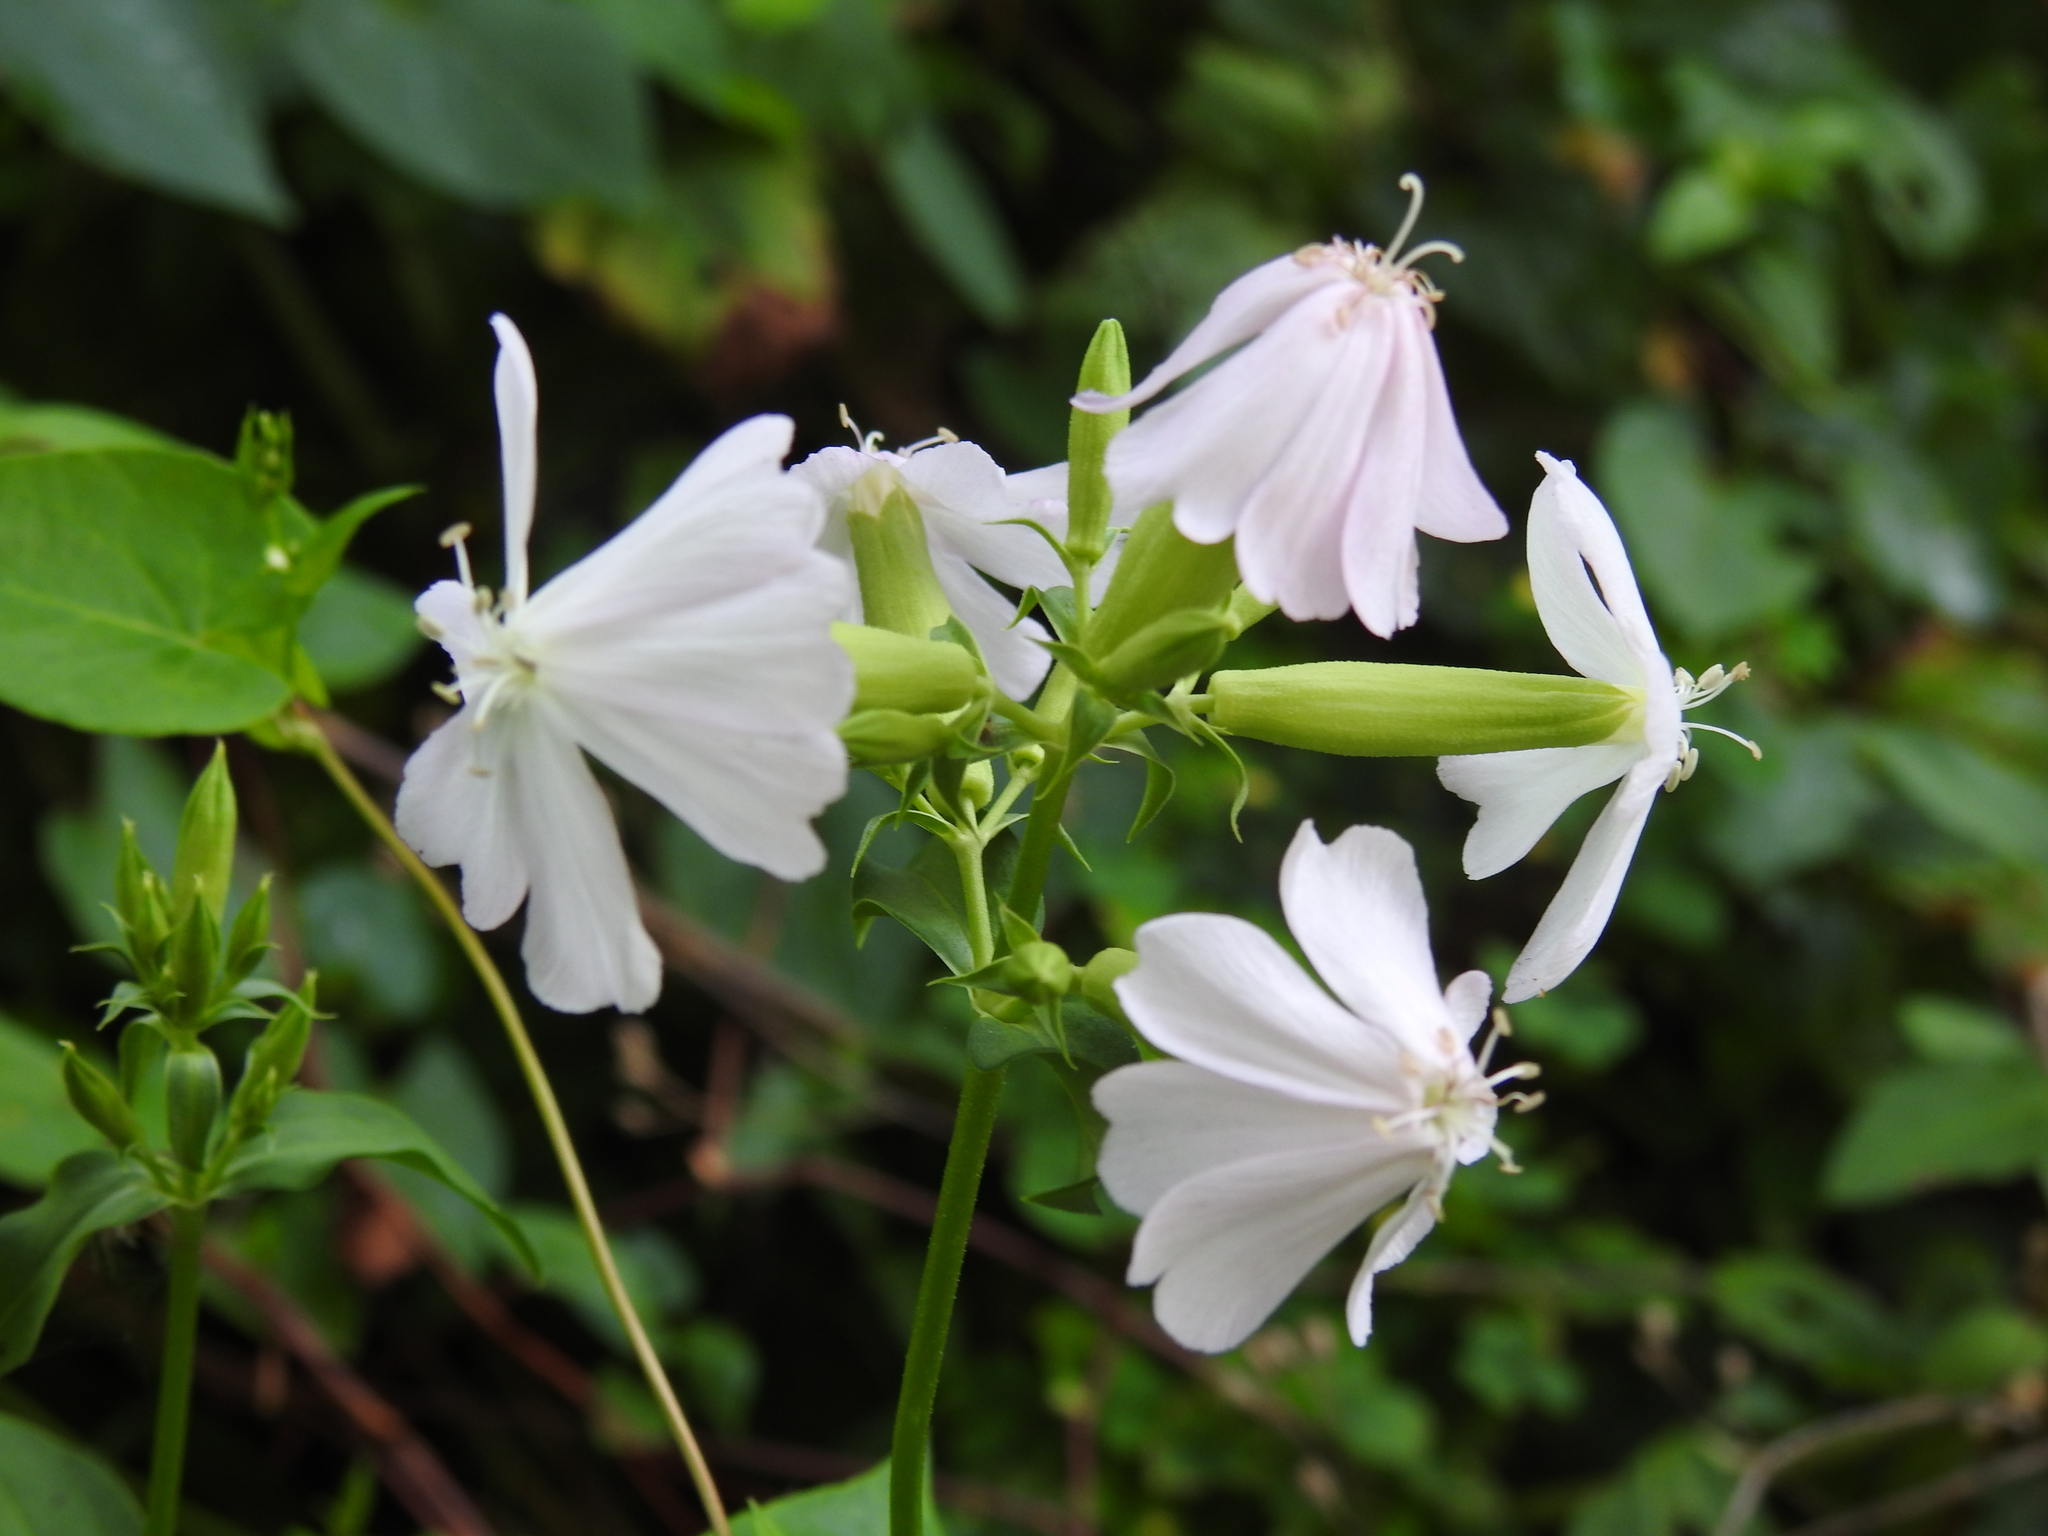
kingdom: Plantae
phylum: Tracheophyta
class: Magnoliopsida
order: Caryophyllales
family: Caryophyllaceae
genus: Saponaria
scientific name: Saponaria officinalis
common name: Soapwort
